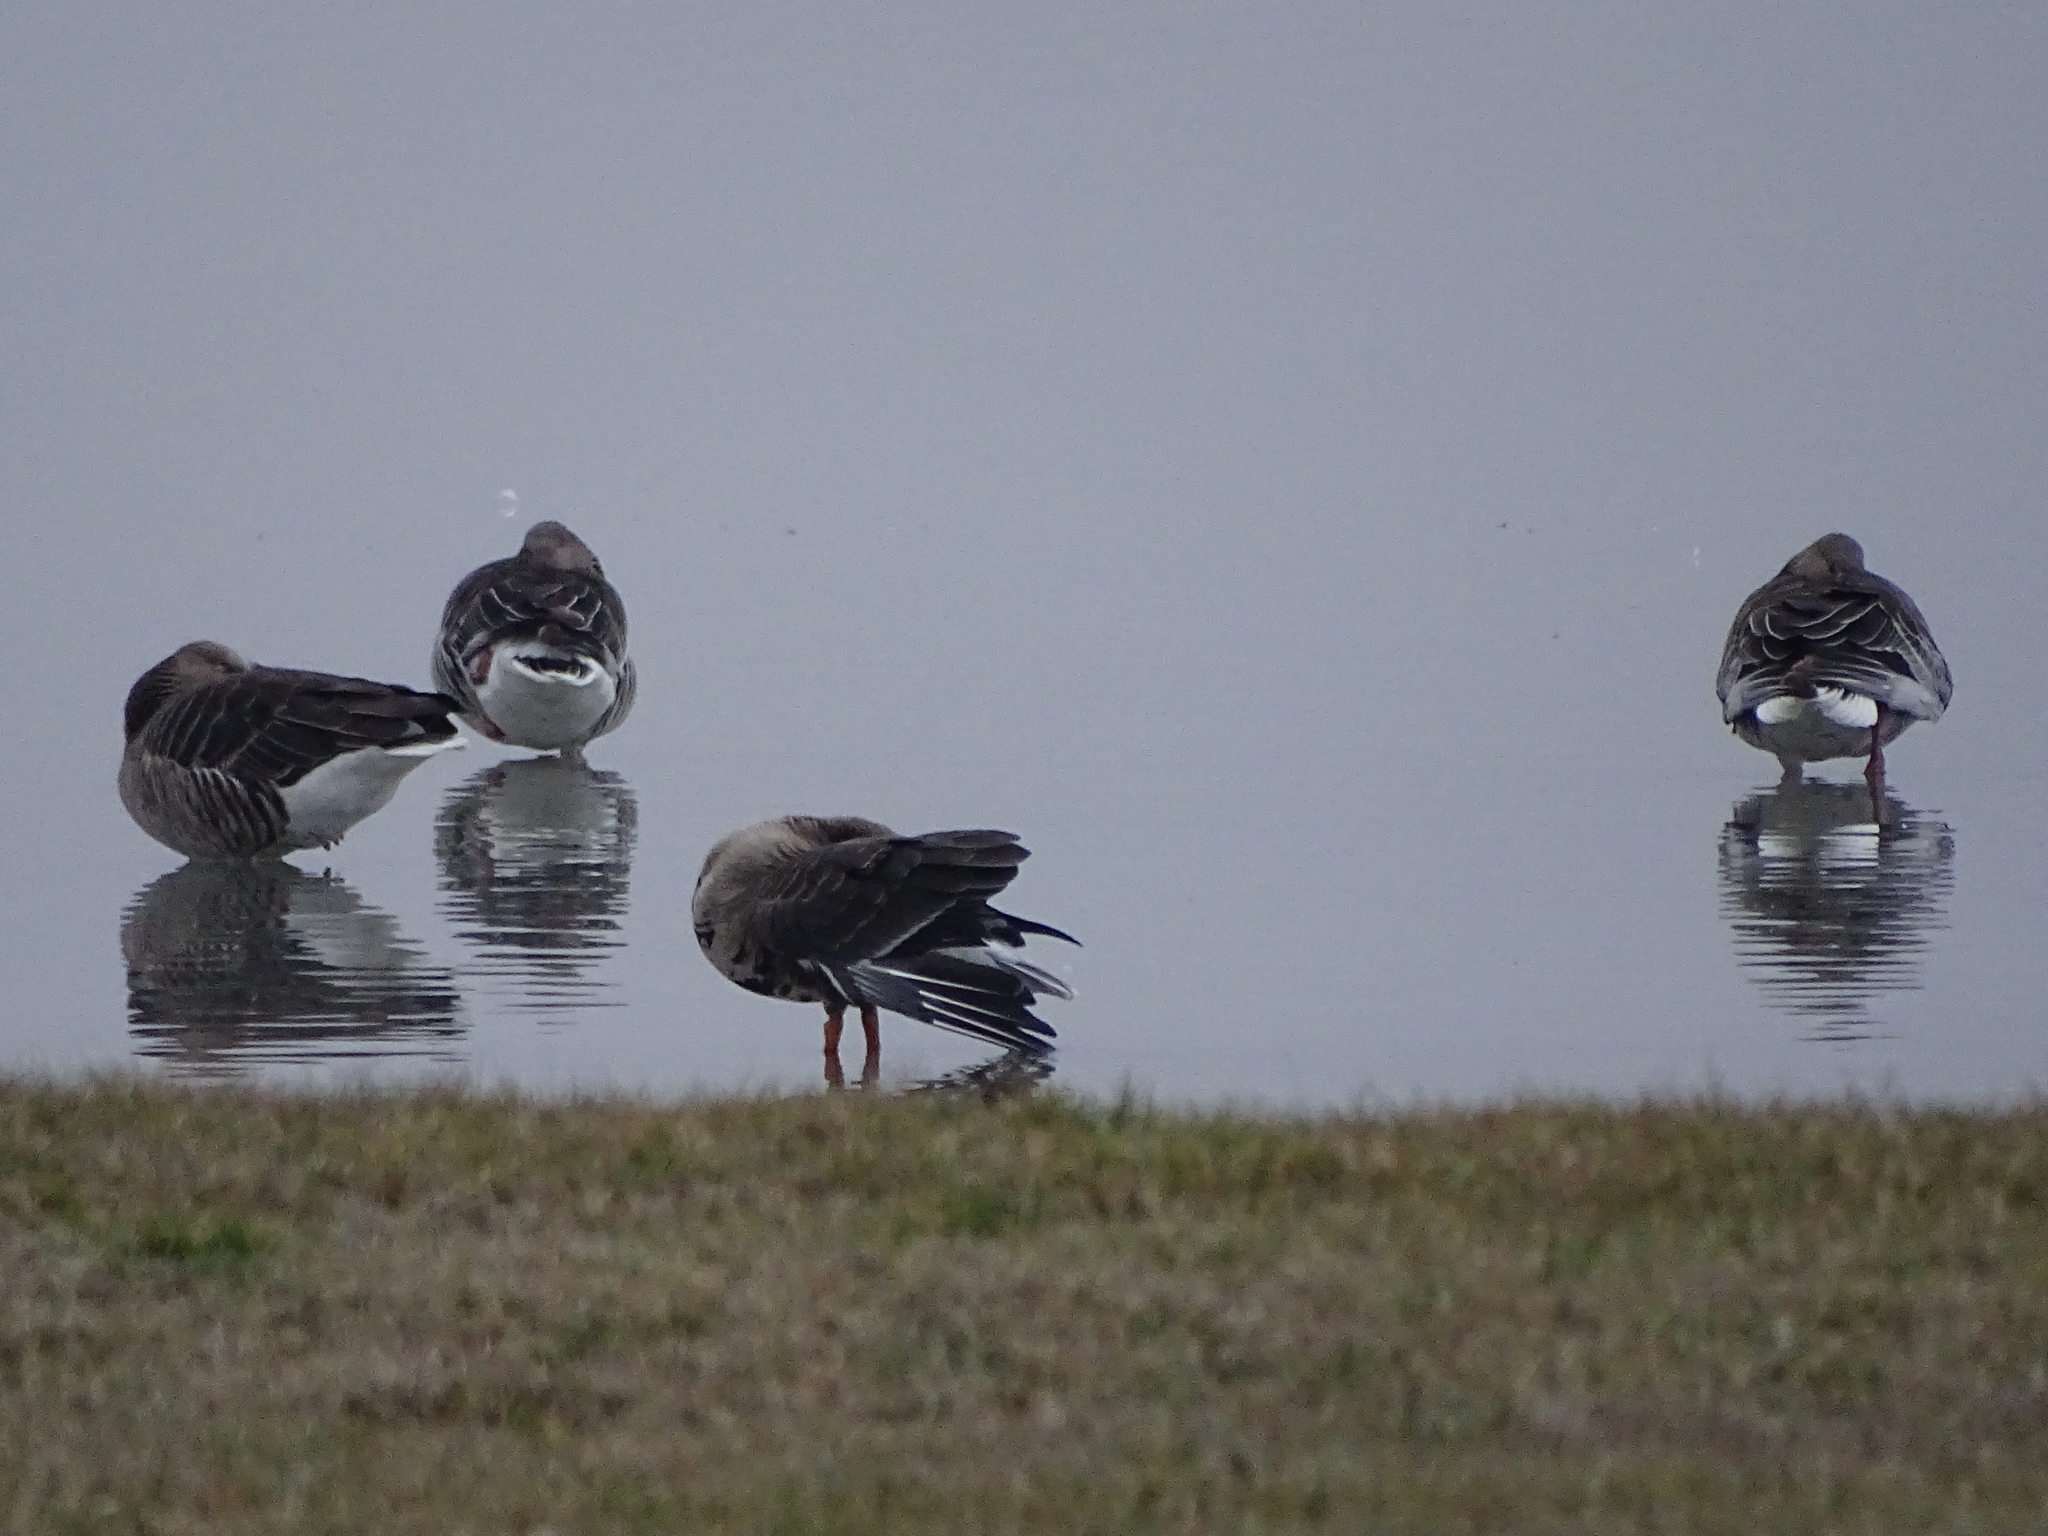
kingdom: Animalia
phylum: Chordata
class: Aves
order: Anseriformes
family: Anatidae
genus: Anser
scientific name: Anser albifrons
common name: Greater white-fronted goose
